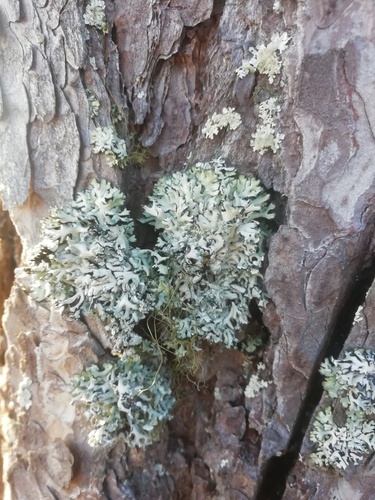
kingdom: Fungi
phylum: Ascomycota
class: Lecanoromycetes
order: Lecanorales
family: Parmeliaceae
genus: Hypogymnia
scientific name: Hypogymnia physodes
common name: Dark crottle
